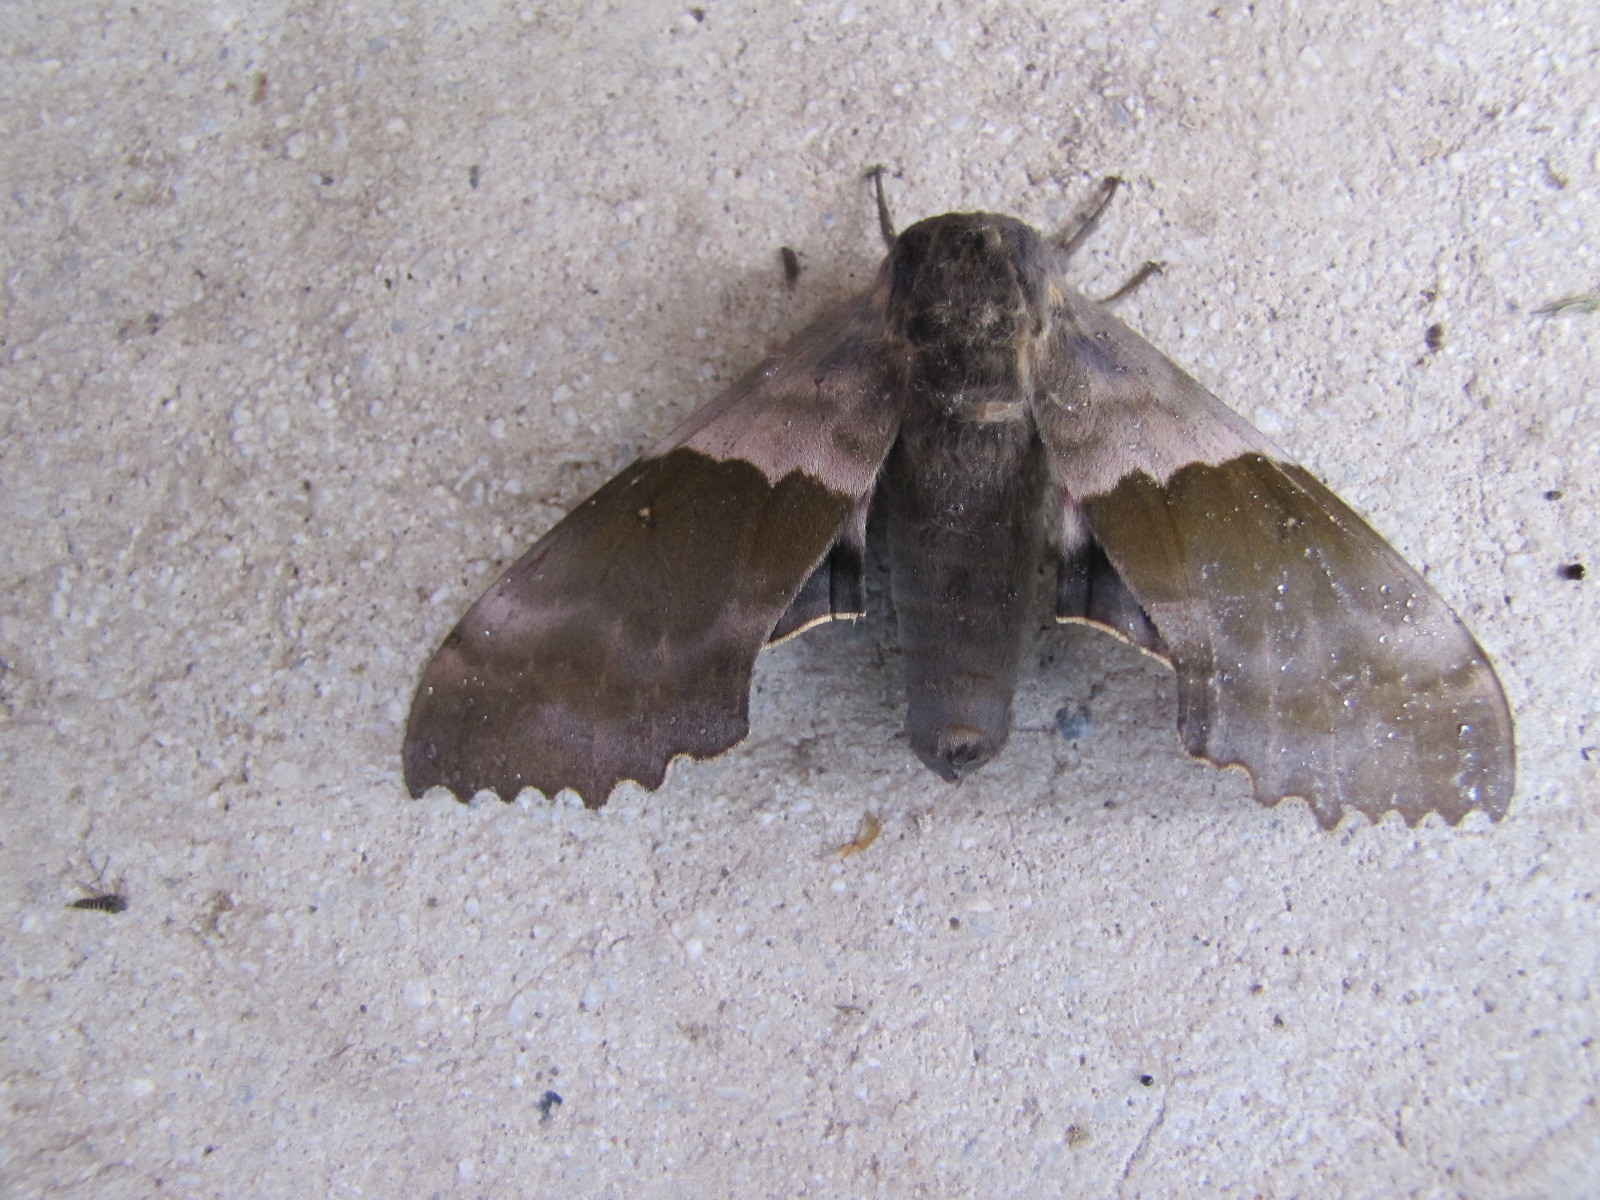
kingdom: Animalia
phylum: Arthropoda
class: Insecta
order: Lepidoptera
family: Sphingidae
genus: Pachysphinx
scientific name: Pachysphinx modesta
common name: Big poplar sphinx
